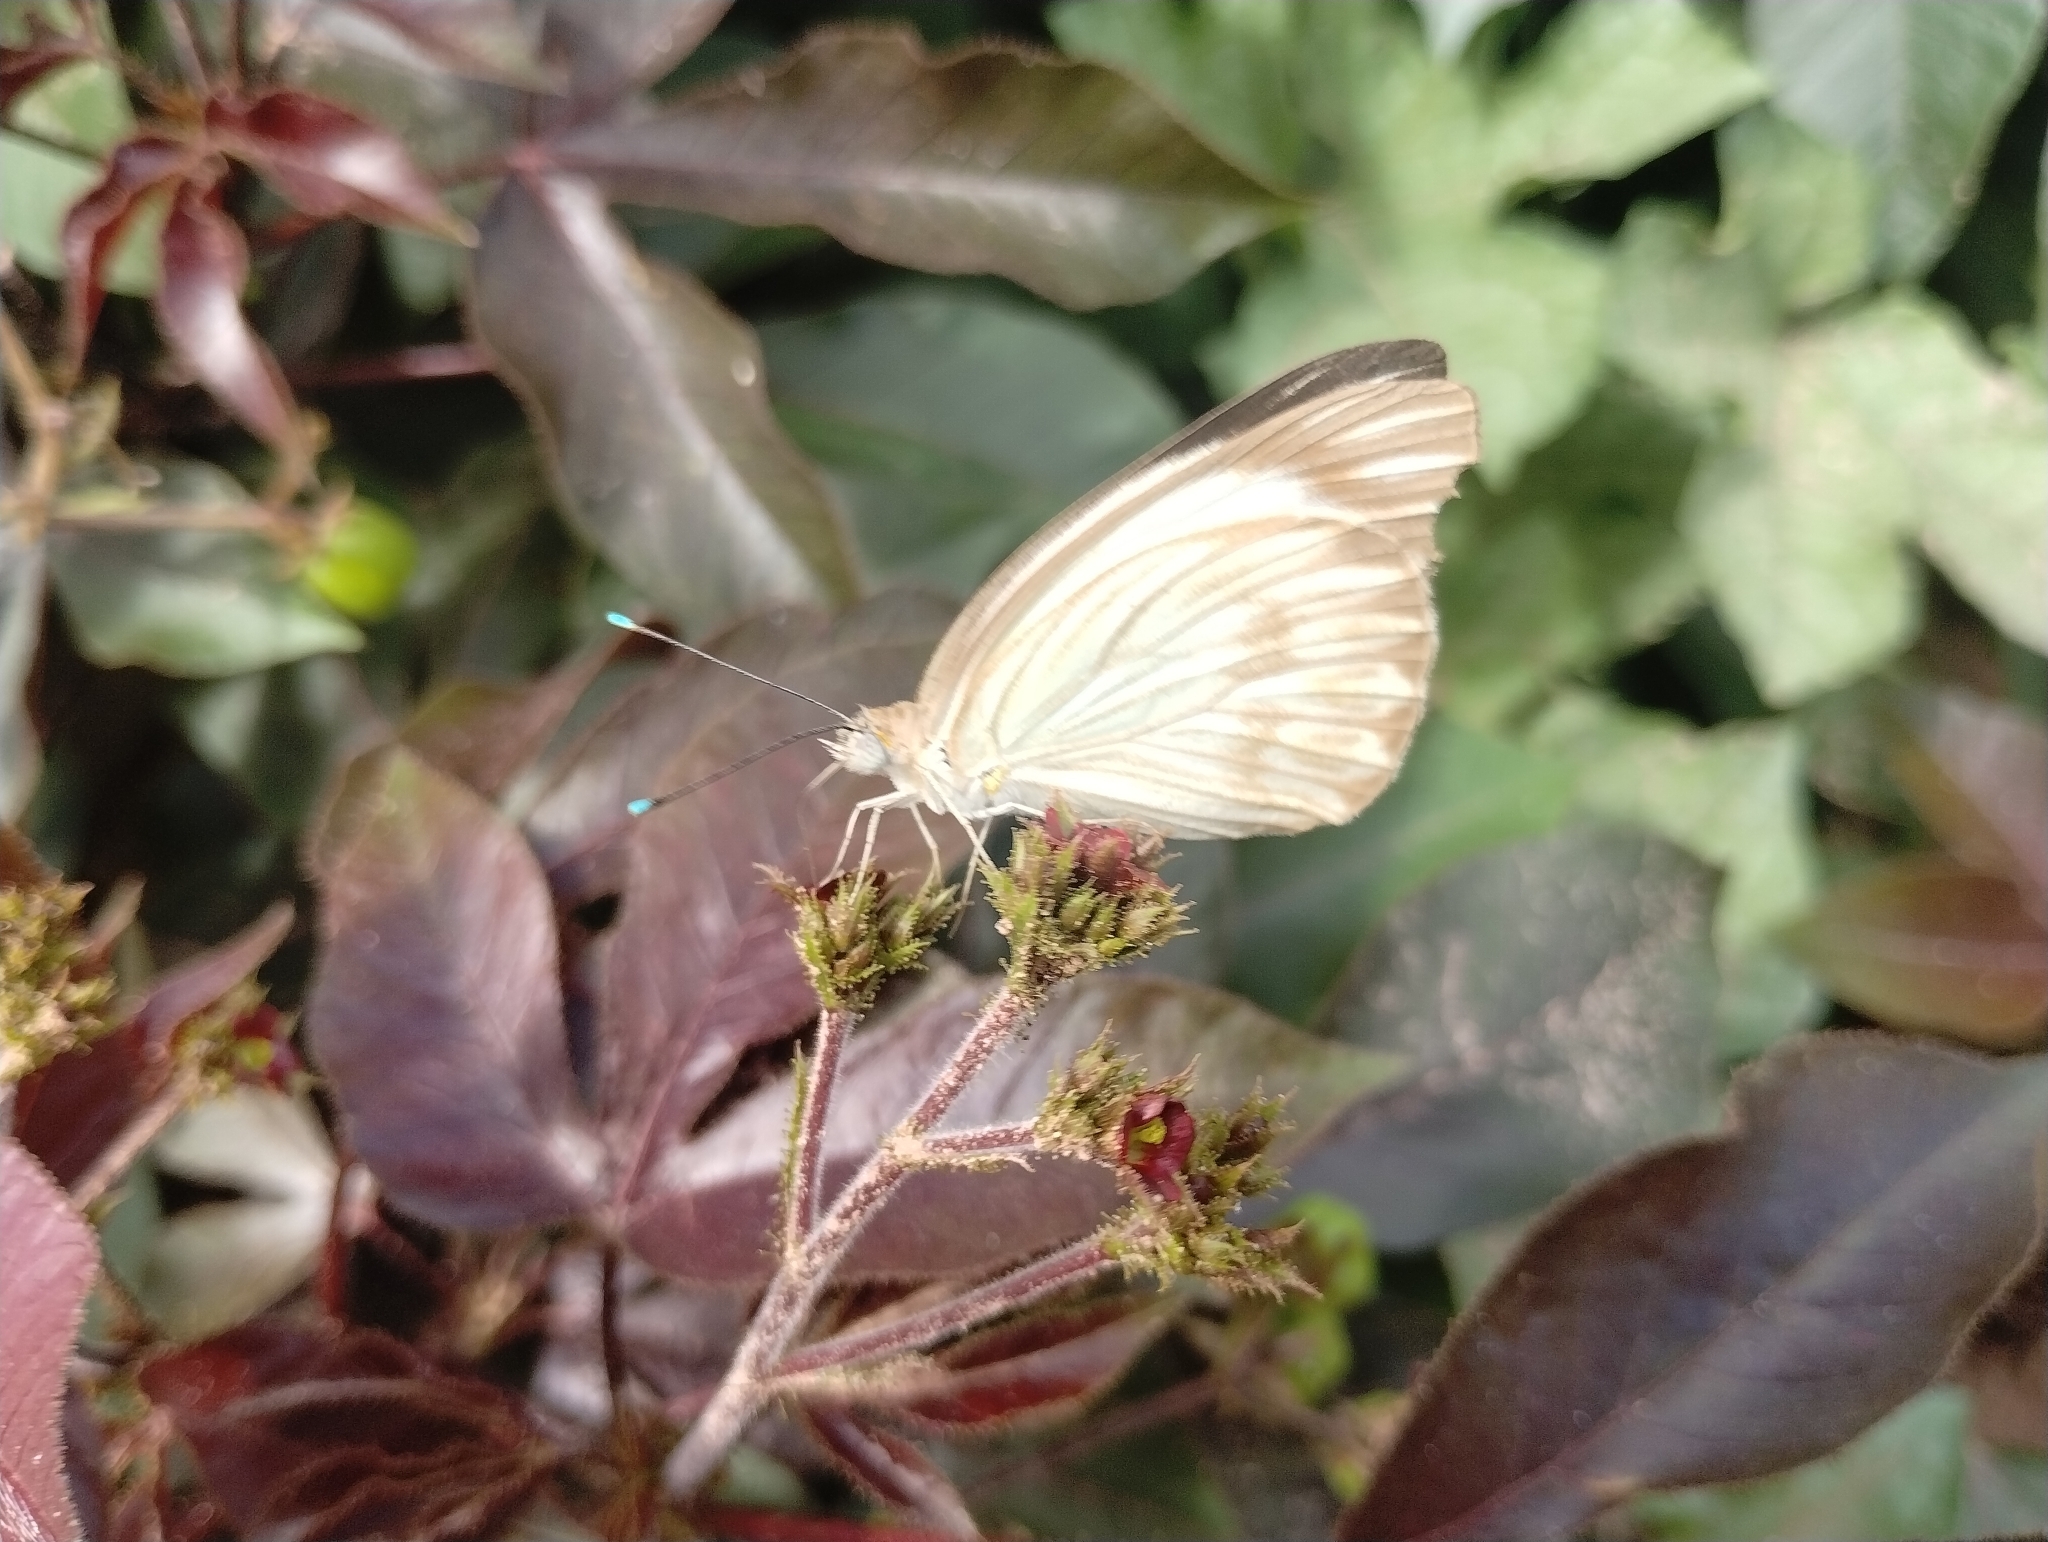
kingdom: Animalia
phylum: Arthropoda
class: Insecta
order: Lepidoptera
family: Pieridae
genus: Ascia
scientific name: Ascia monuste
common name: Great southern white
